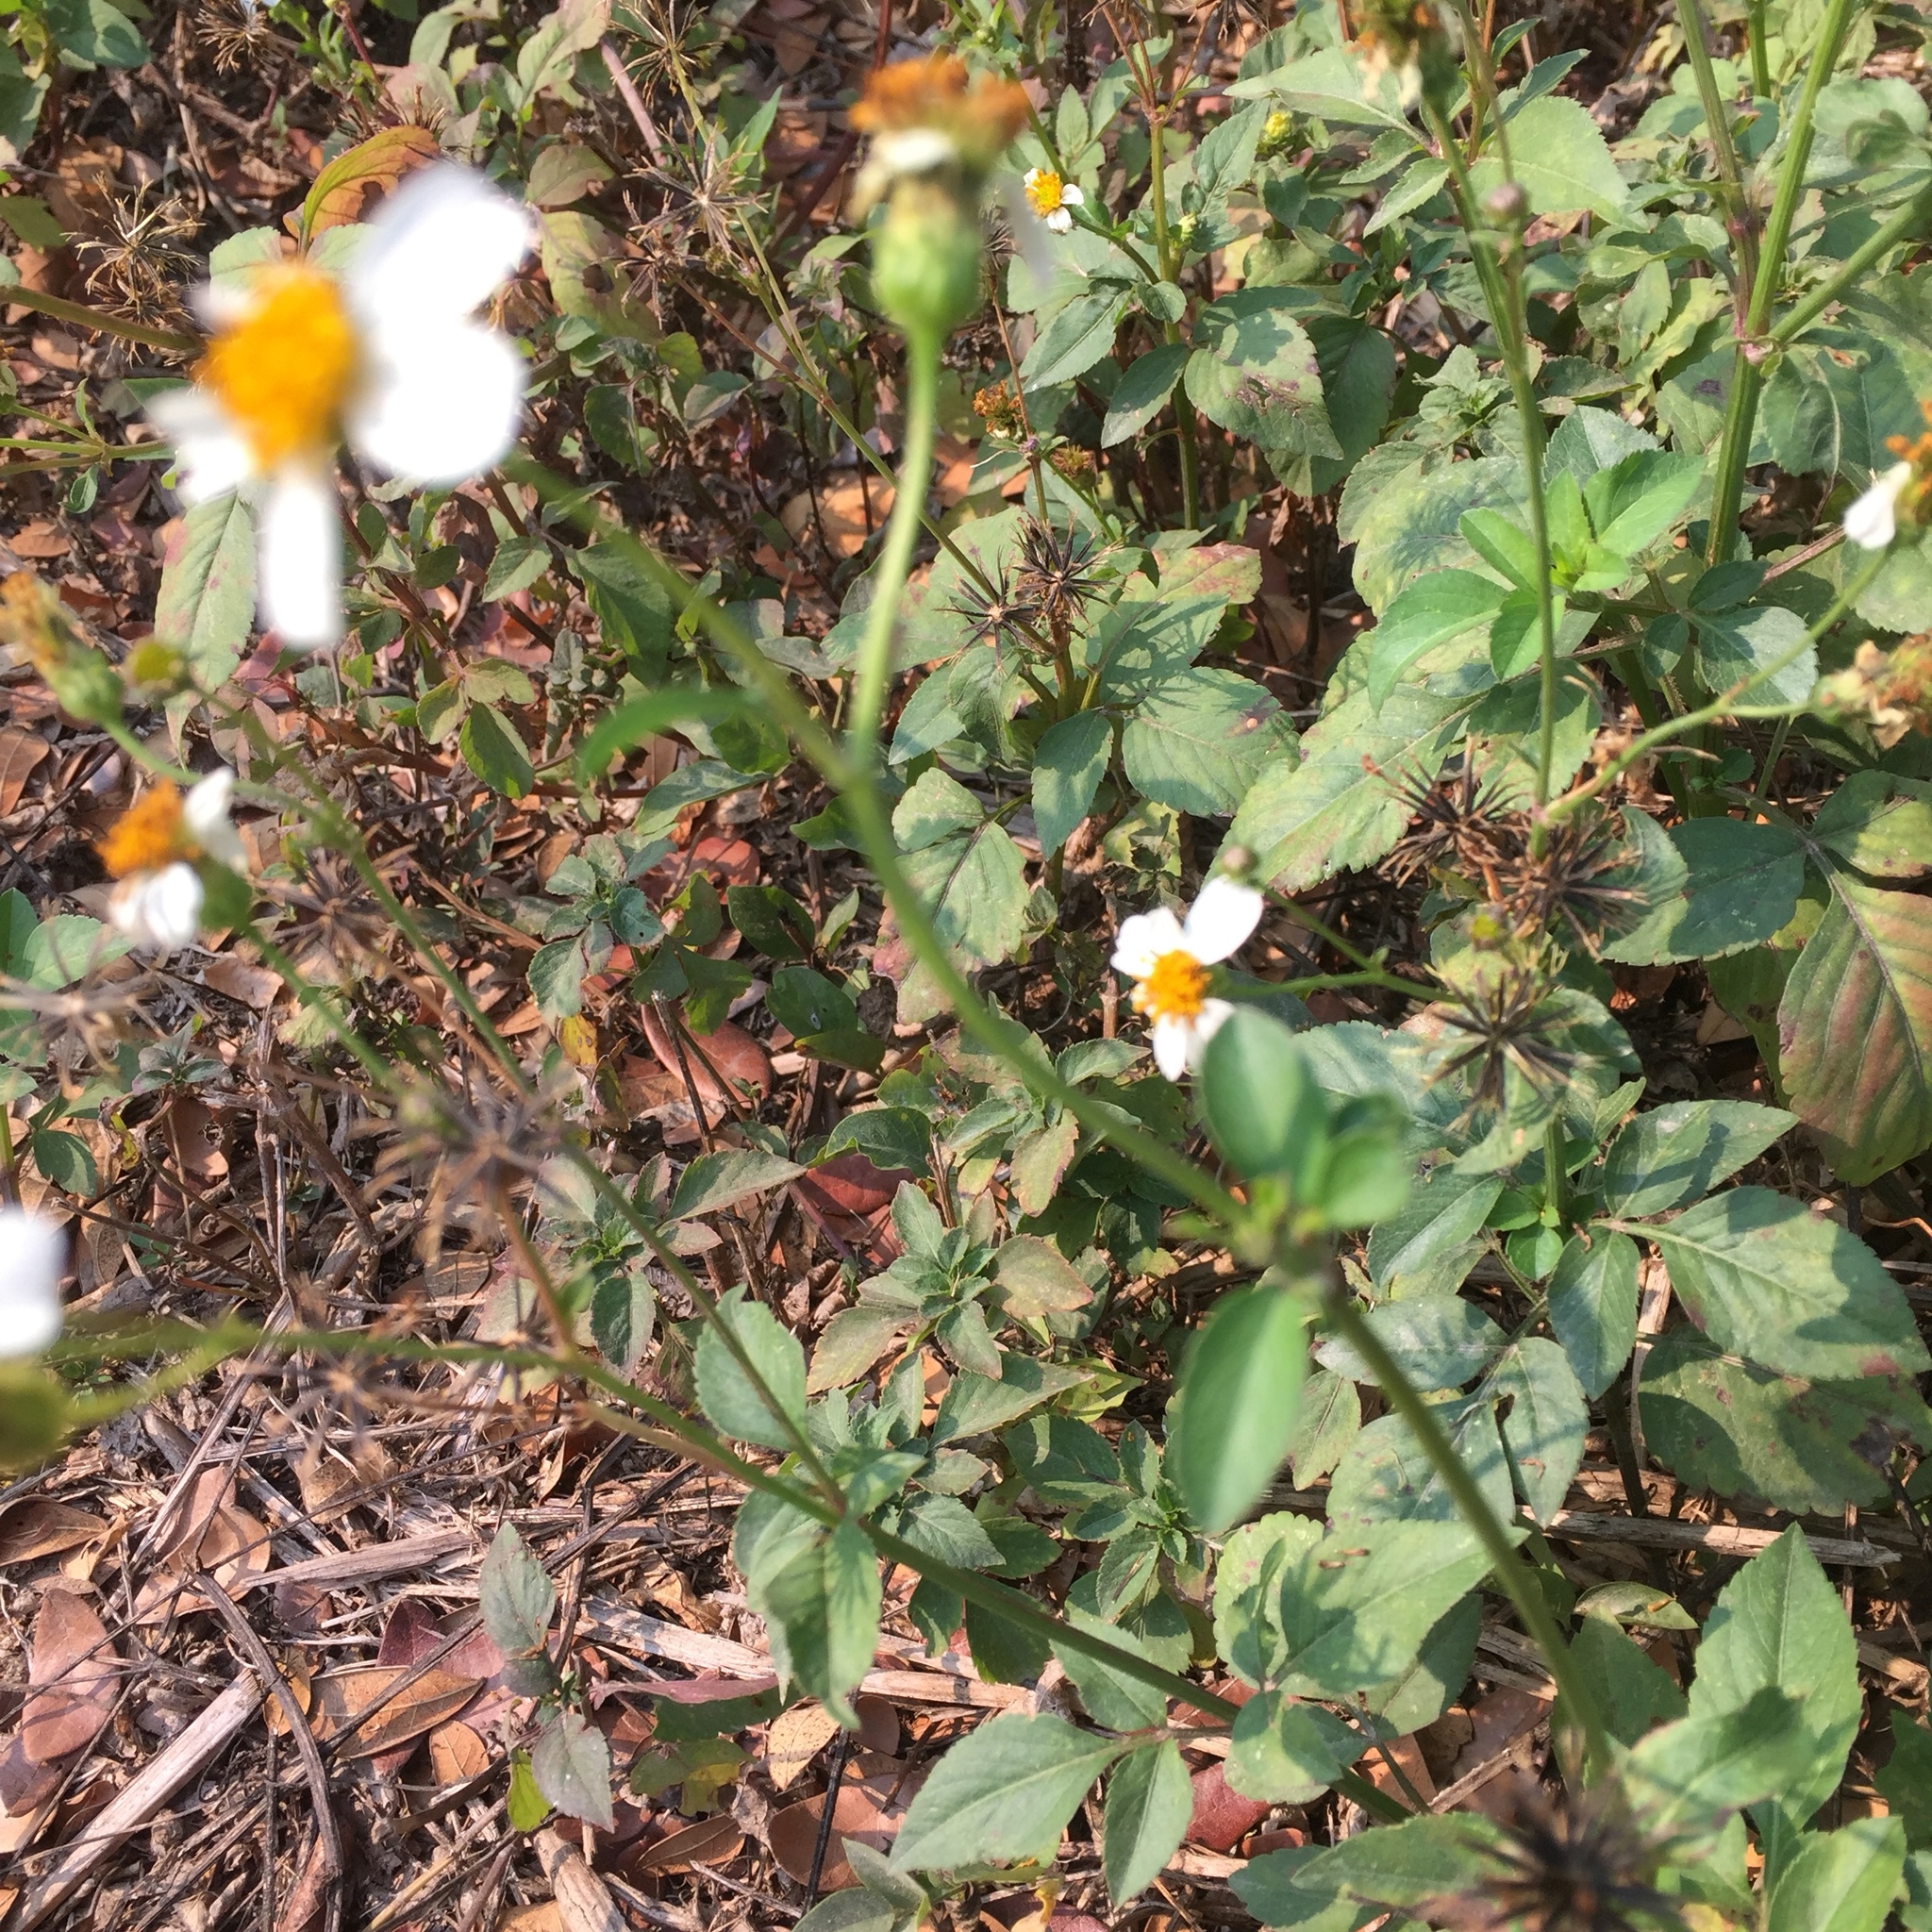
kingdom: Plantae
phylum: Tracheophyta
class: Magnoliopsida
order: Asterales
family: Asteraceae
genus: Bidens
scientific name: Bidens pilosa
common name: Black-jack
